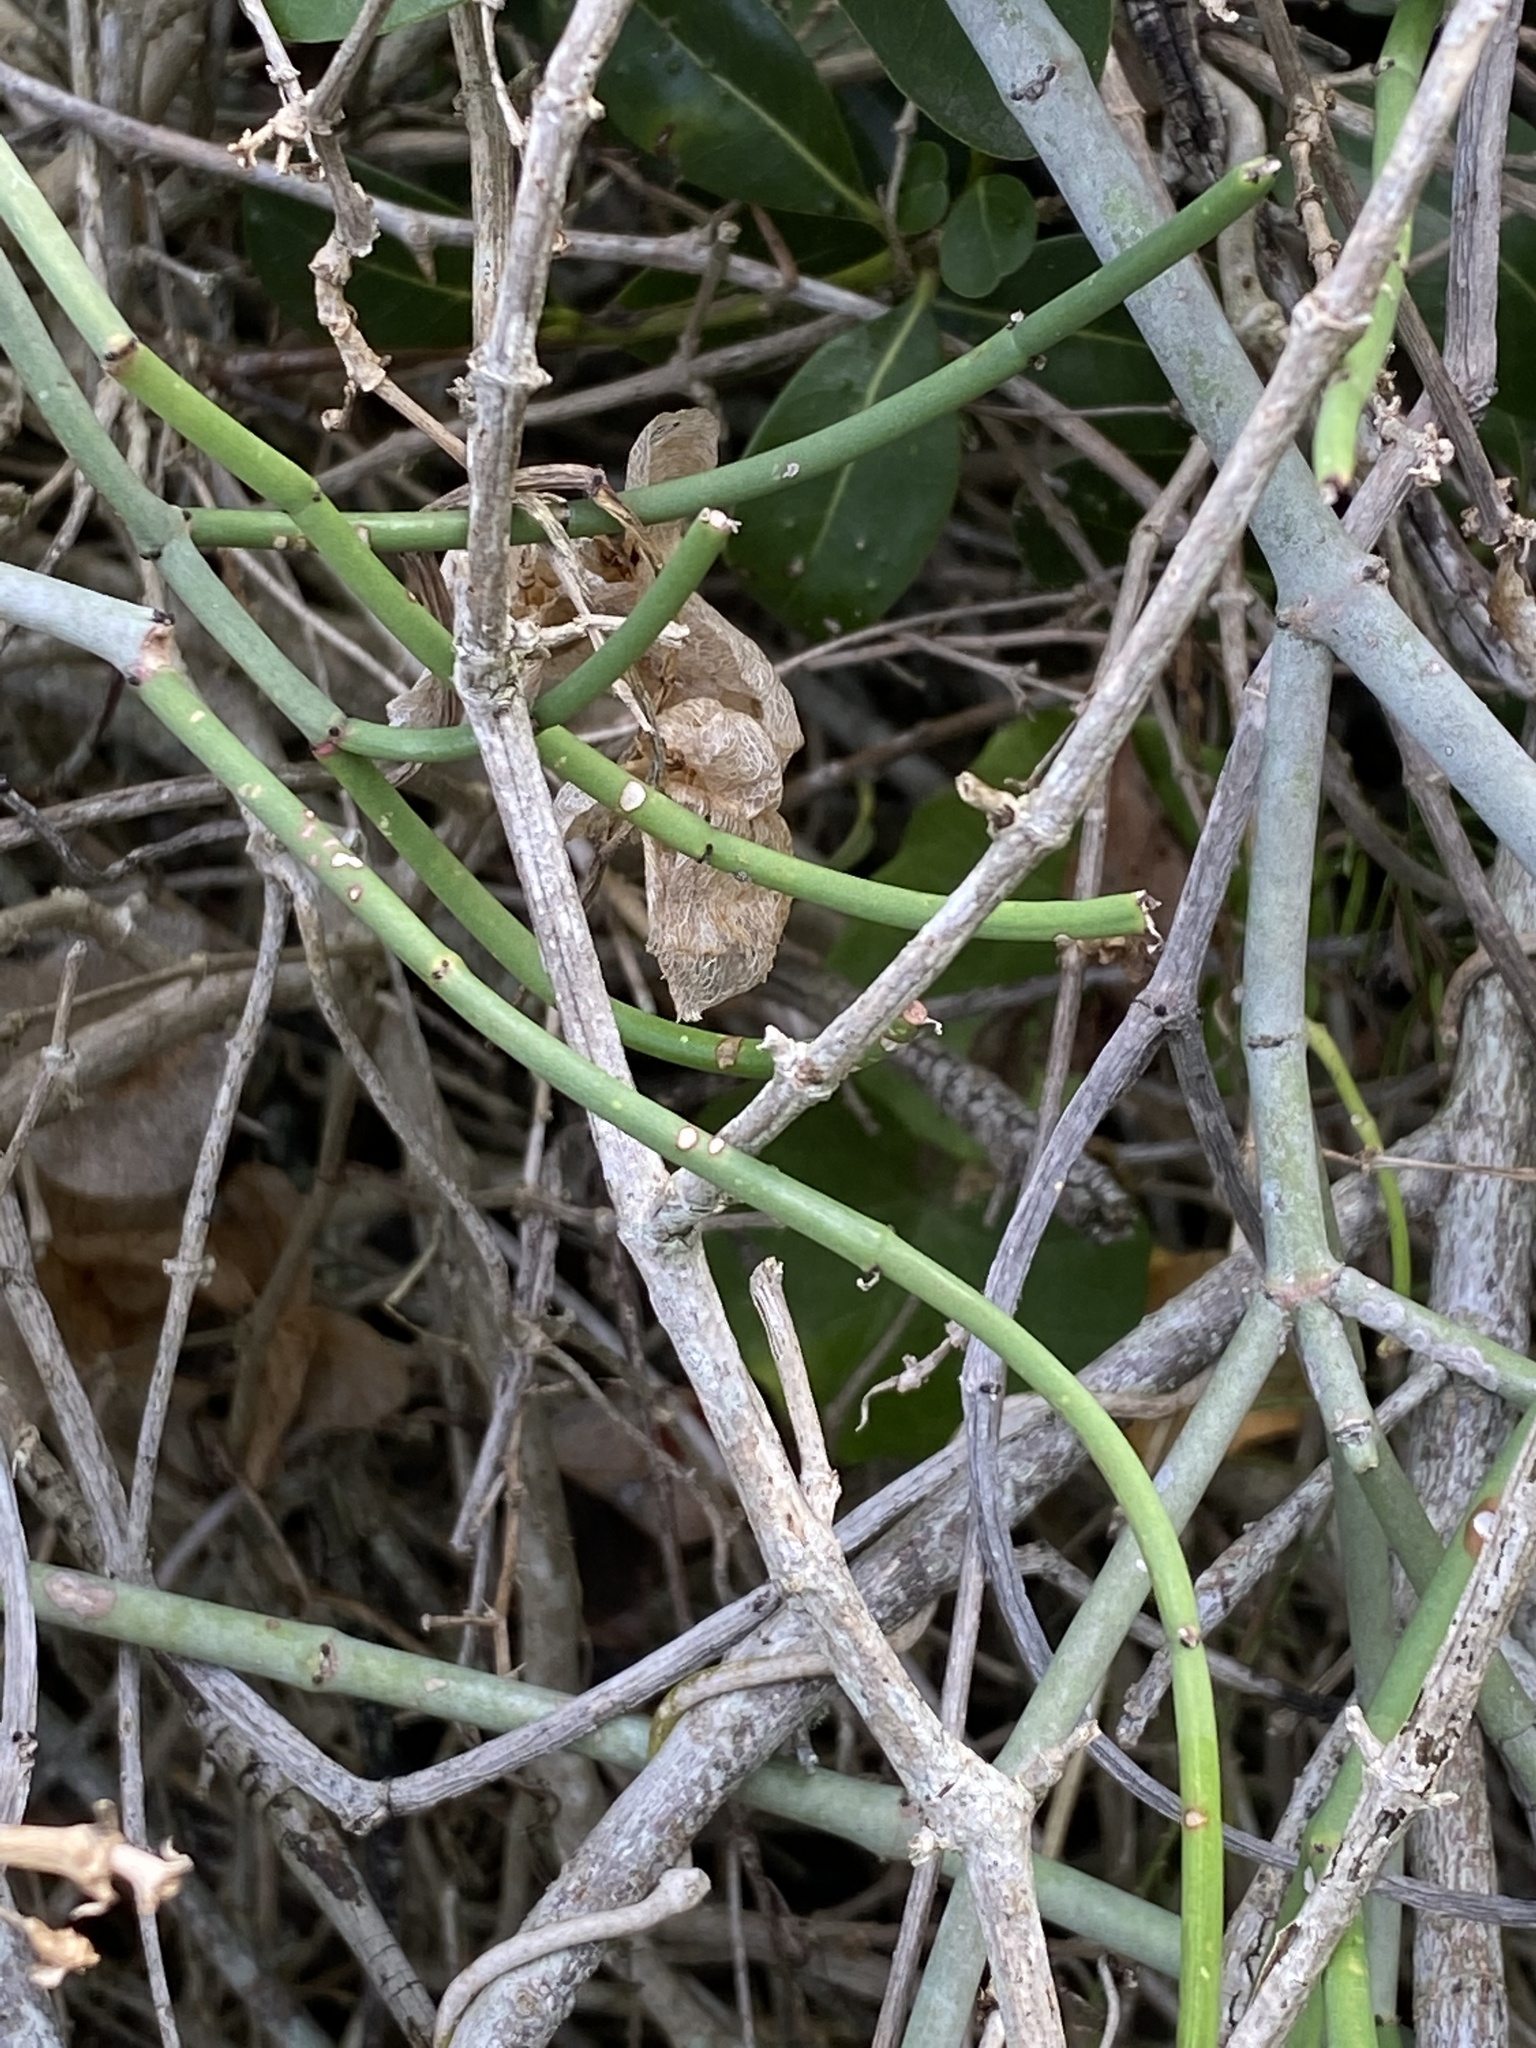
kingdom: Plantae
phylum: Tracheophyta
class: Magnoliopsida
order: Malpighiales
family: Euphorbiaceae
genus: Euphorbia
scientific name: Euphorbia burmanni
